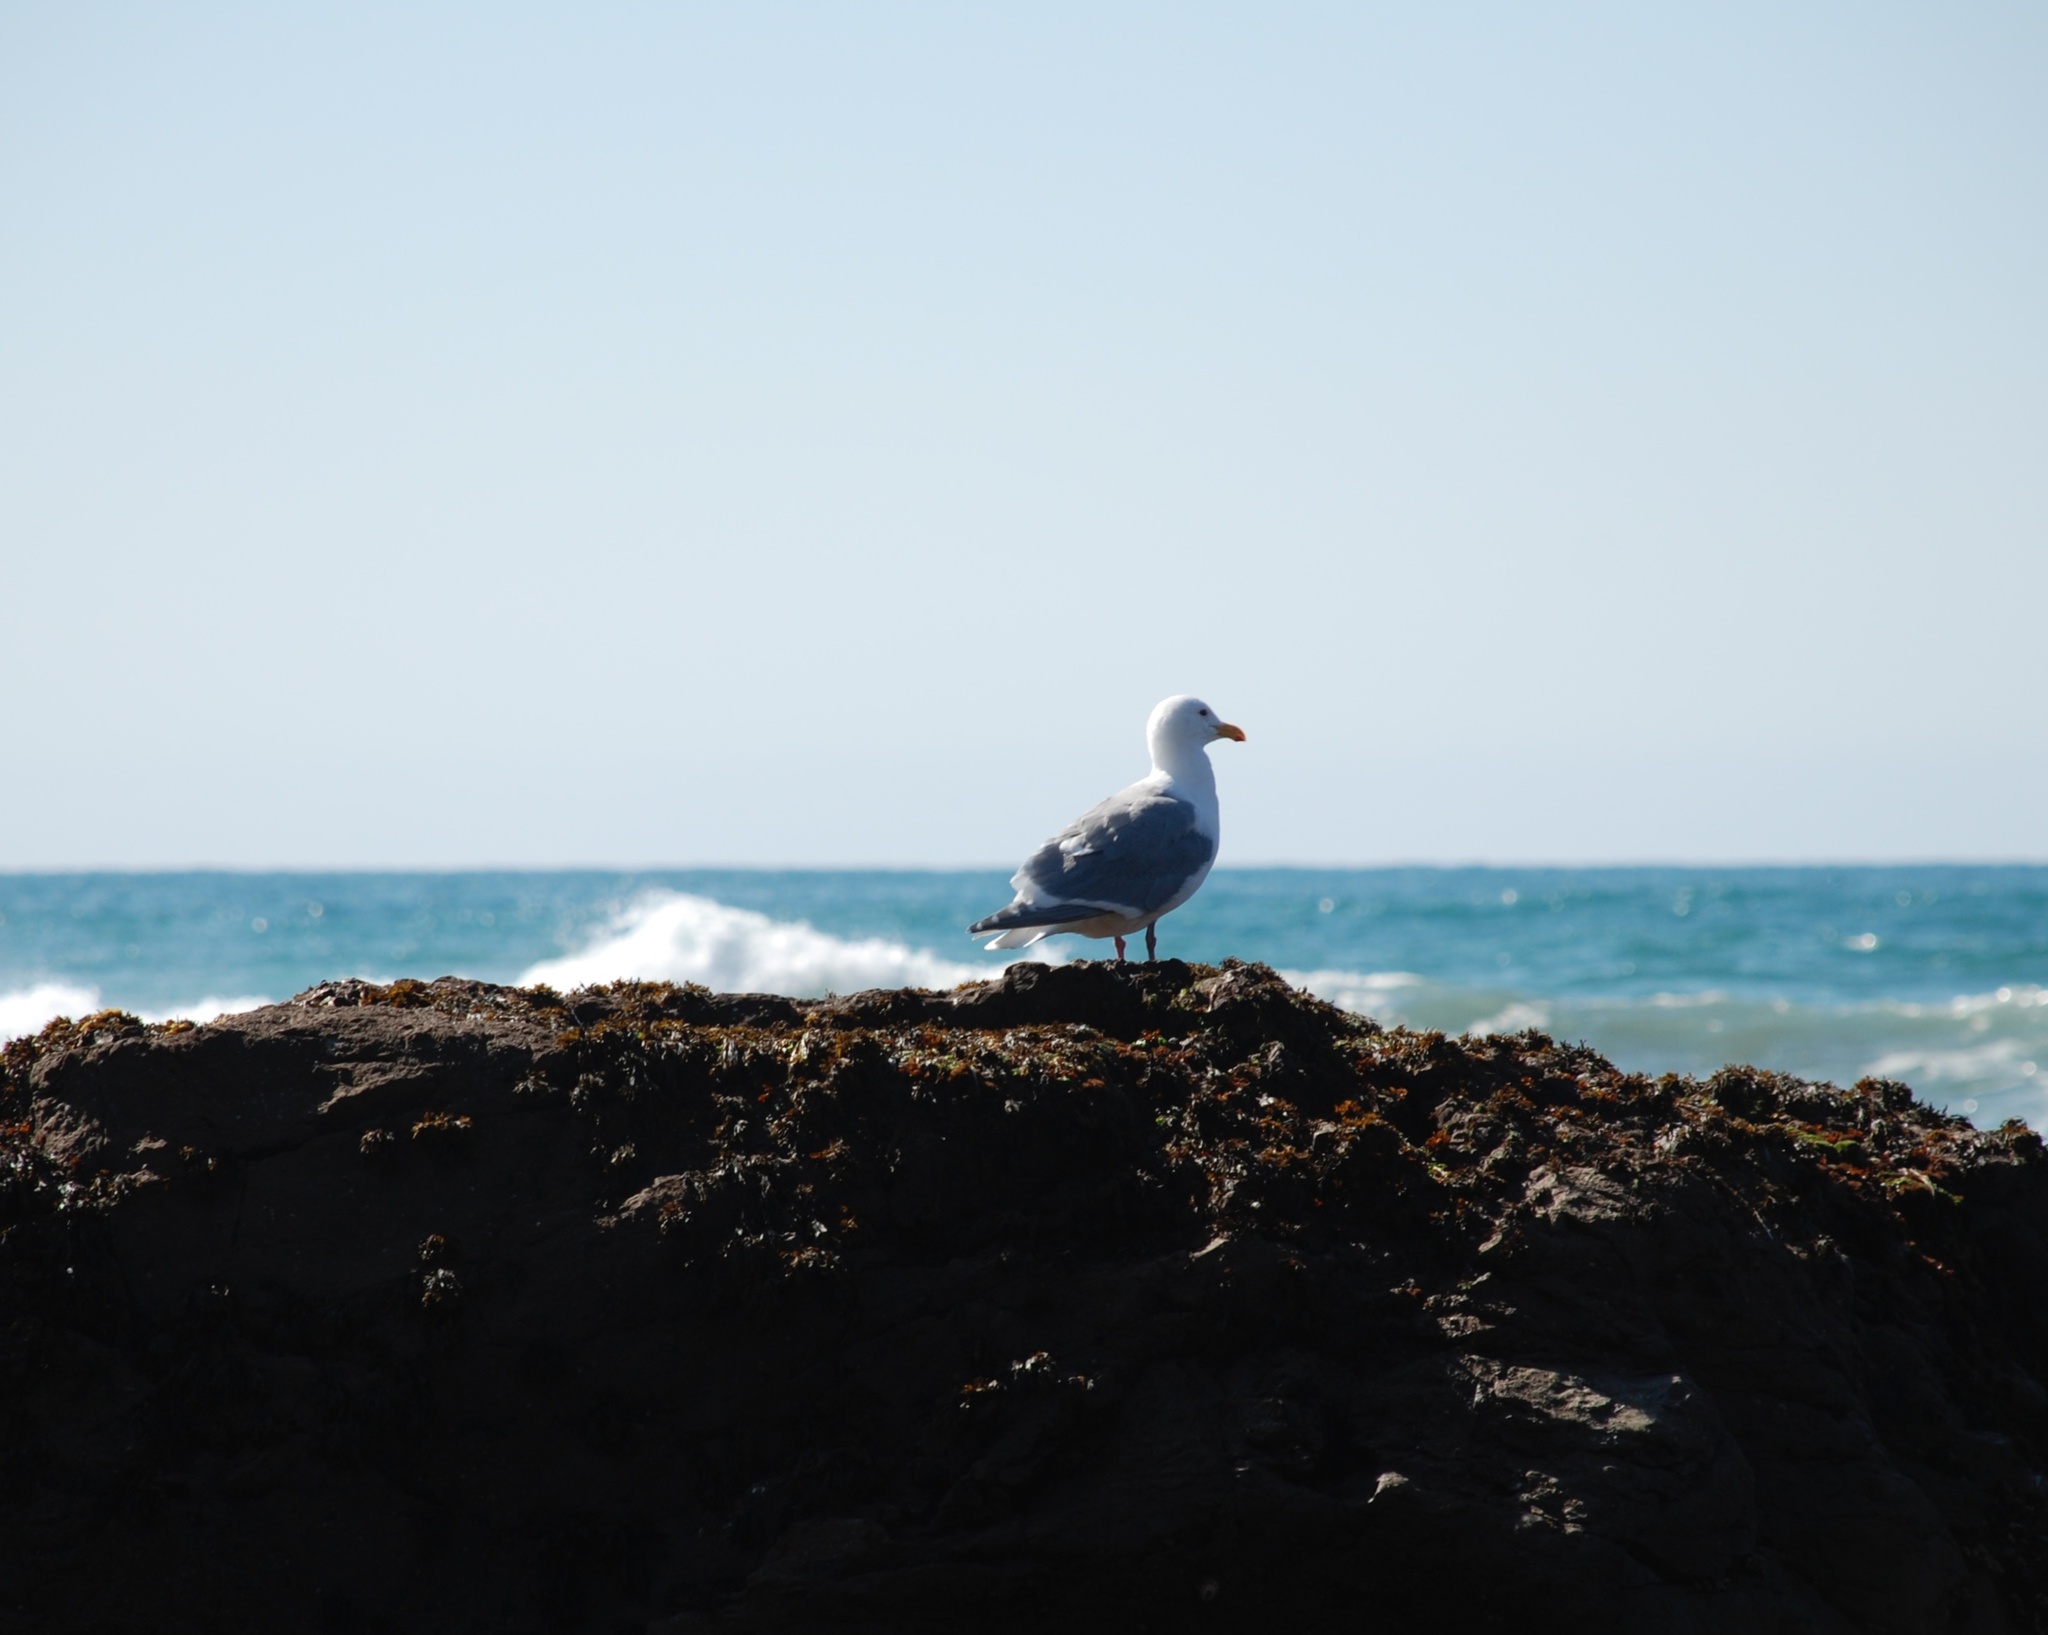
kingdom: Animalia
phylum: Chordata
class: Aves
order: Charadriiformes
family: Laridae
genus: Larus
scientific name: Larus occidentalis
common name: Western gull
